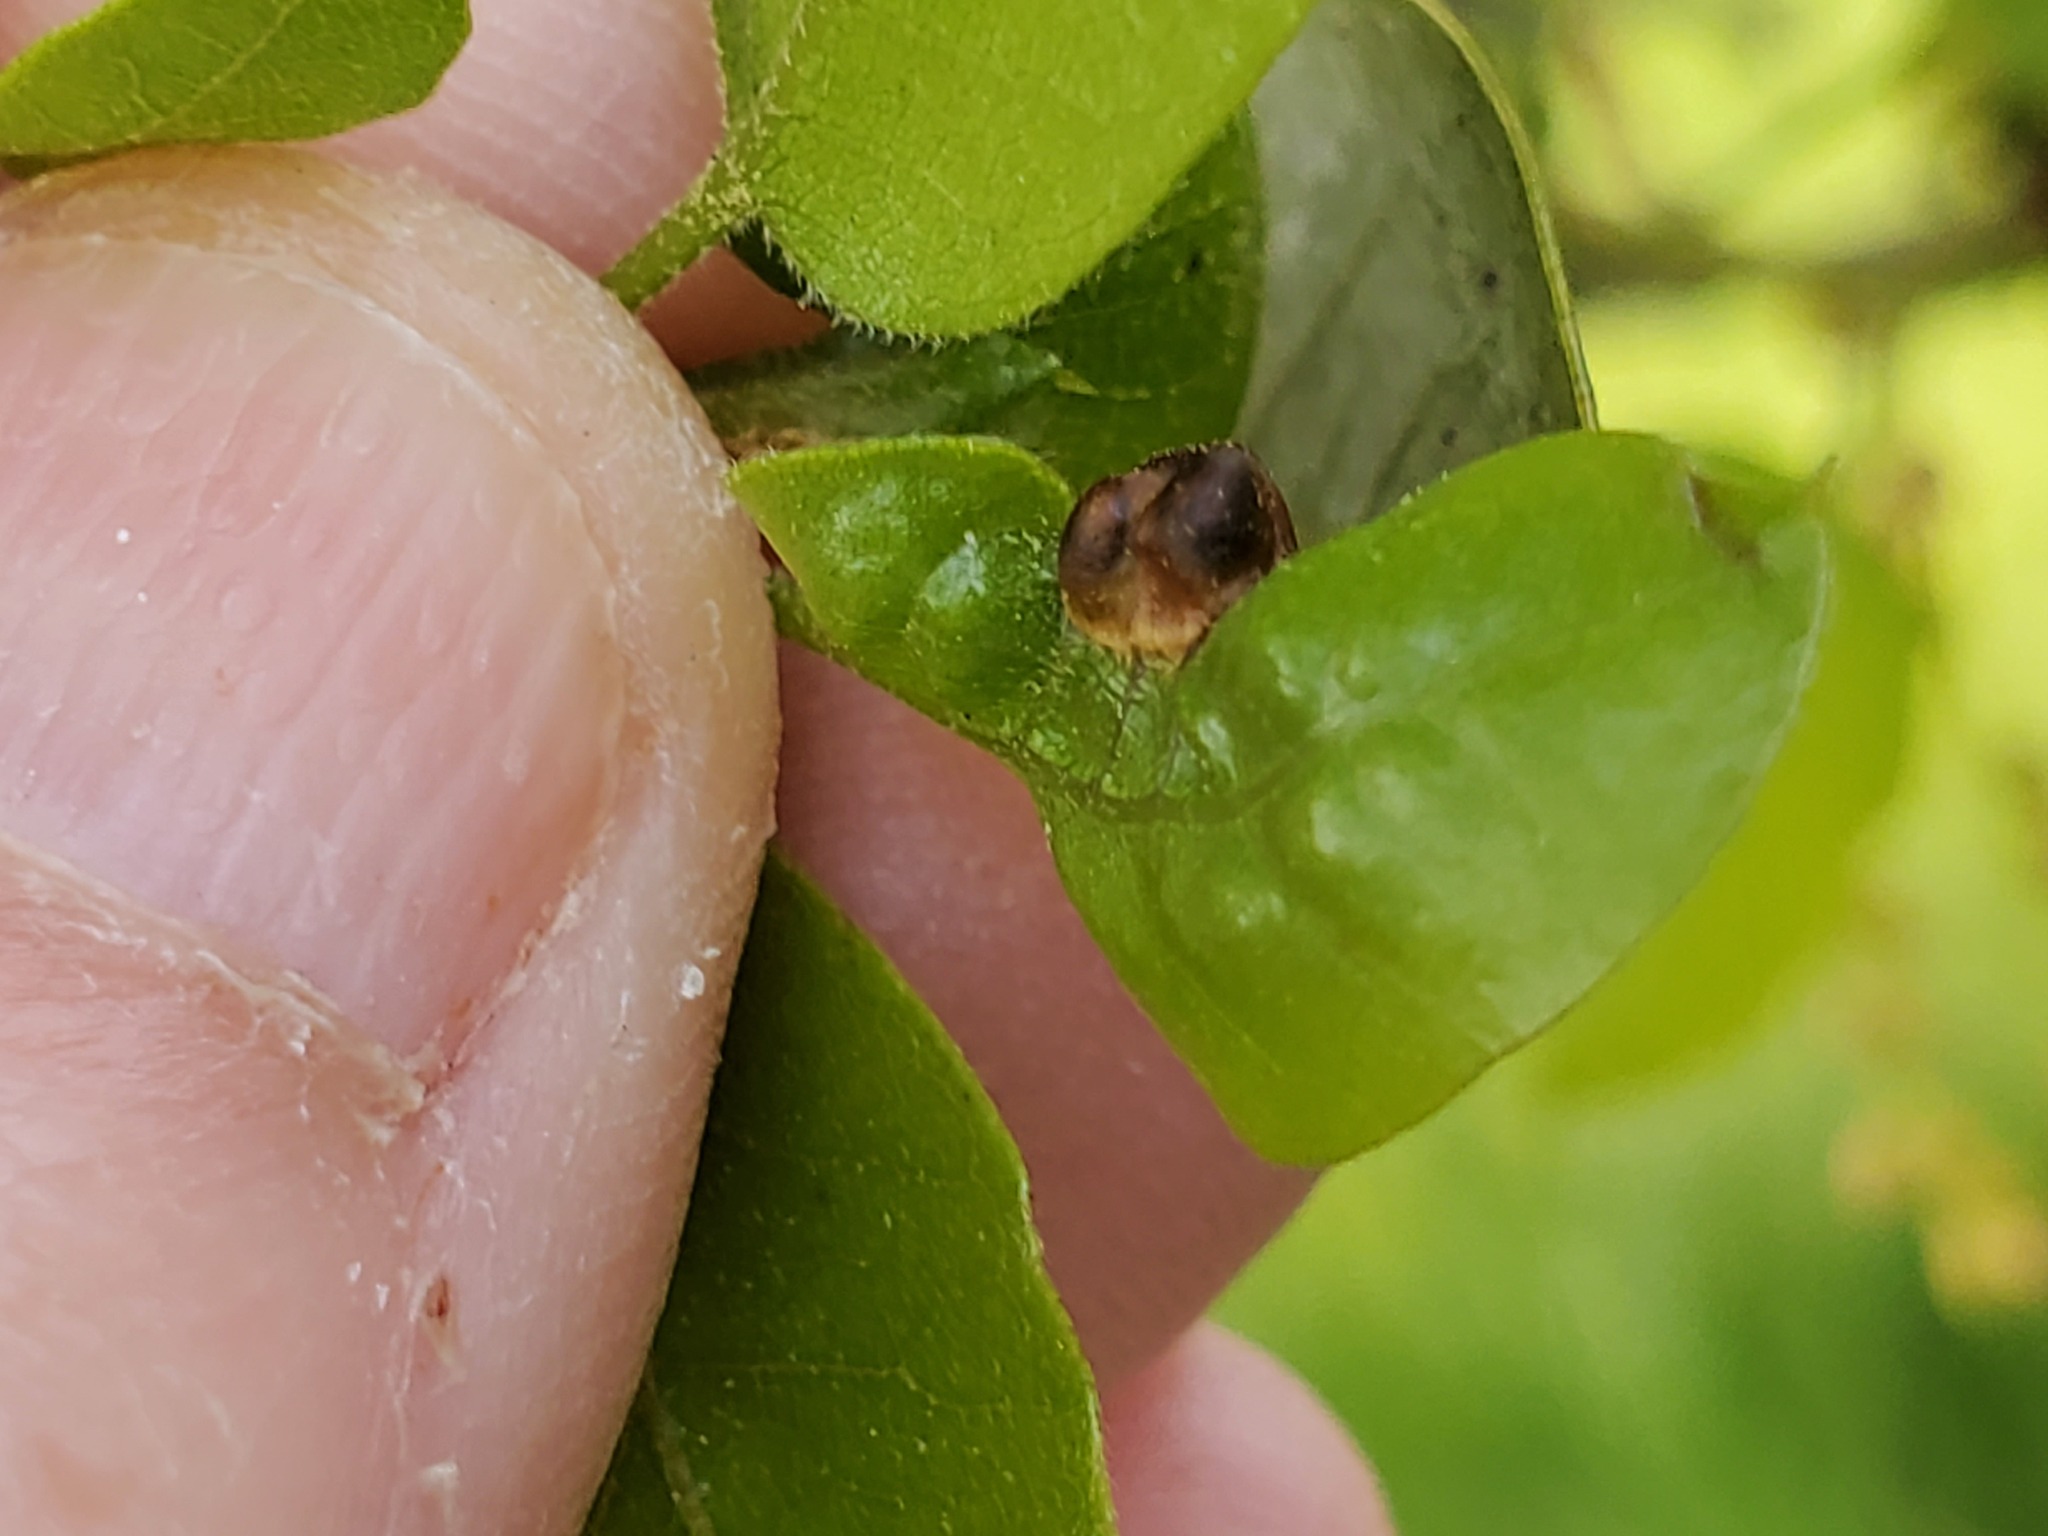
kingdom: Animalia
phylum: Arthropoda
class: Insecta
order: Hymenoptera
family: Cynipidae
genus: Dryocosmus
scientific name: Dryocosmus
